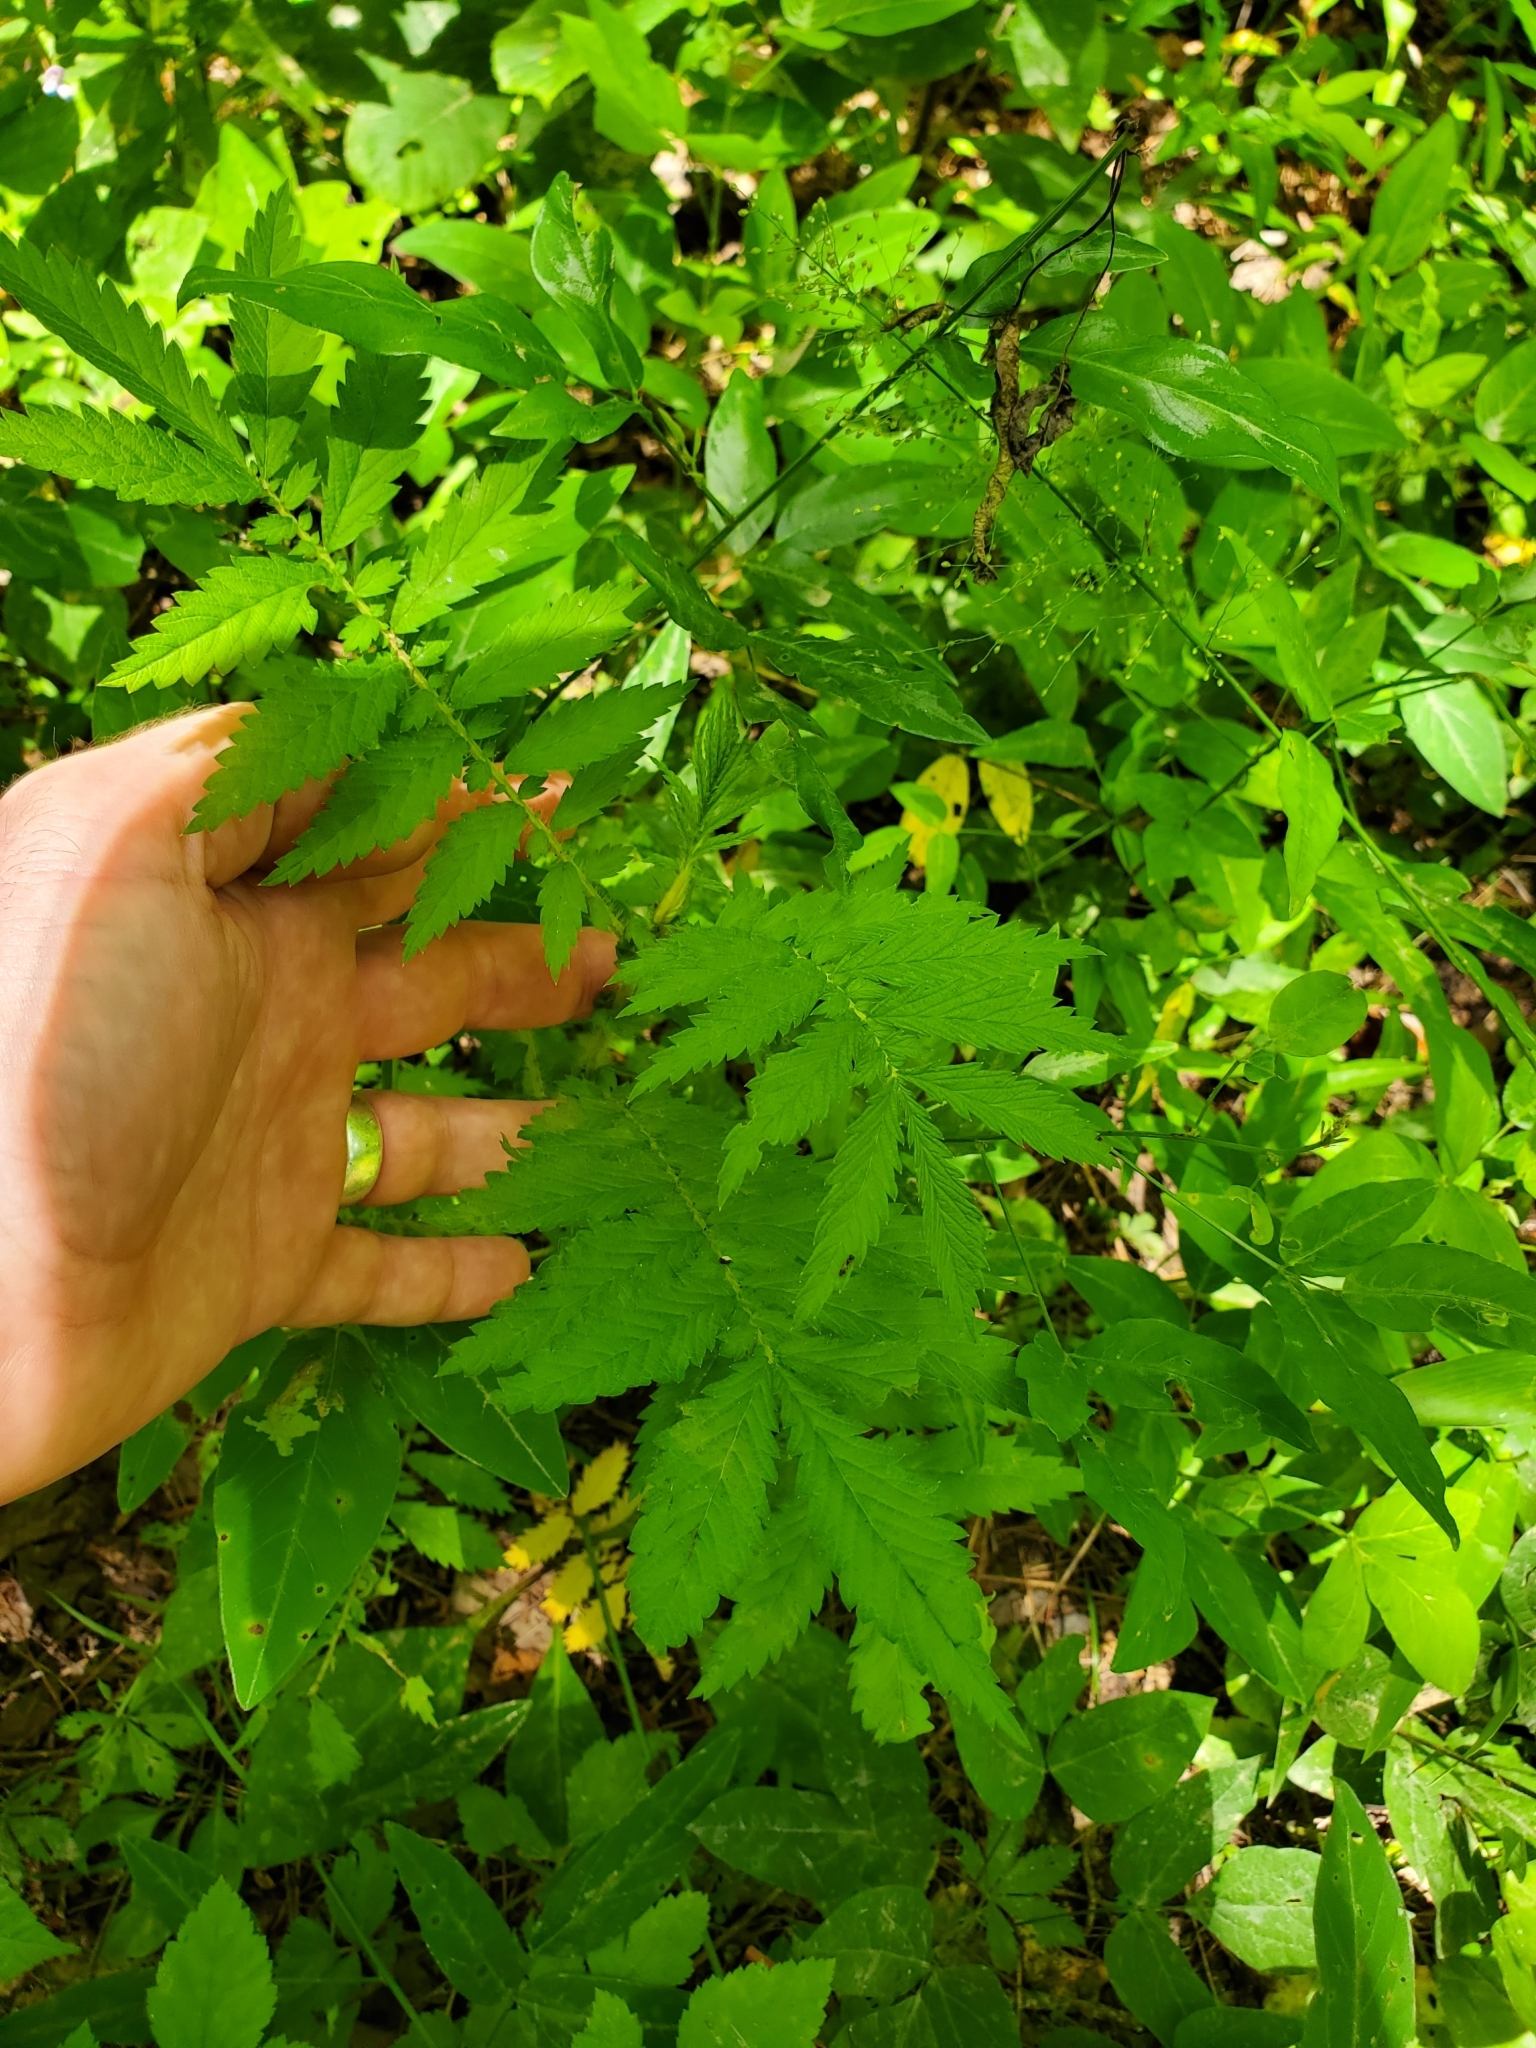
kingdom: Plantae
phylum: Tracheophyta
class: Magnoliopsida
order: Rosales
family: Rosaceae
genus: Agrimonia
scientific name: Agrimonia parviflora
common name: Harvest-lice
